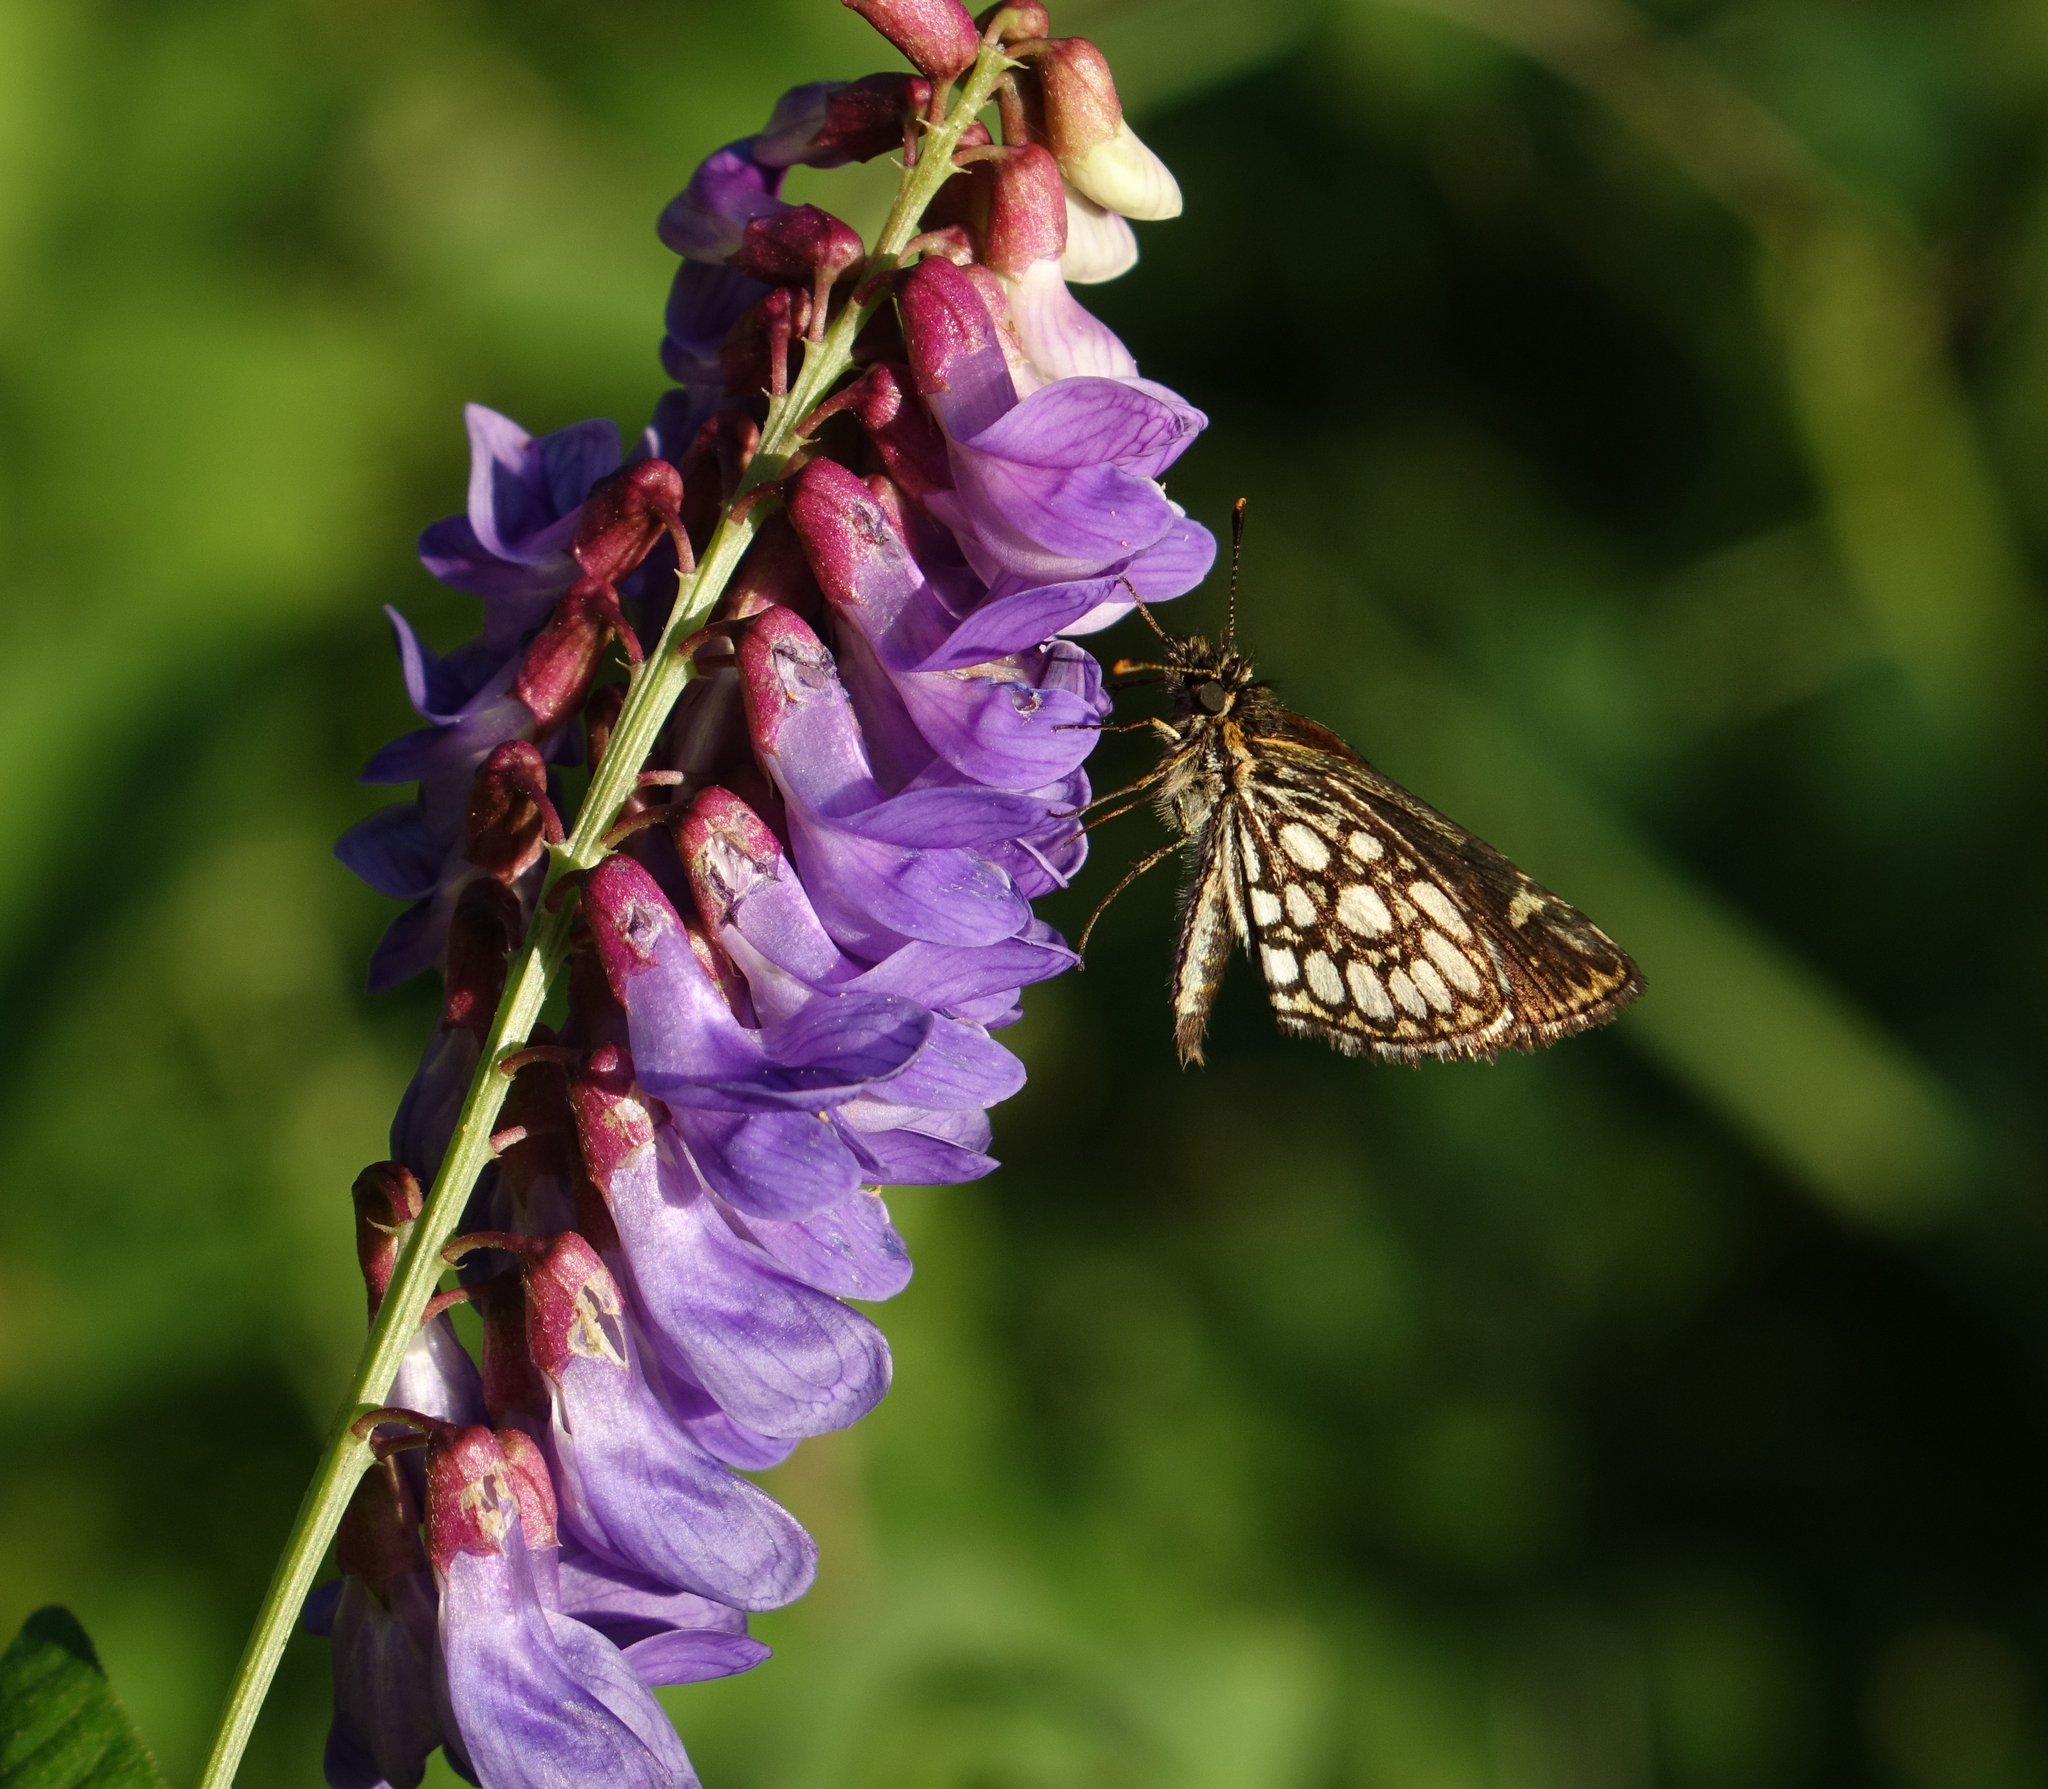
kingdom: Animalia
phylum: Arthropoda
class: Insecta
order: Lepidoptera
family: Hesperiidae
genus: Heteropterus
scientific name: Heteropterus morpheus
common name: Large chequered skipper
